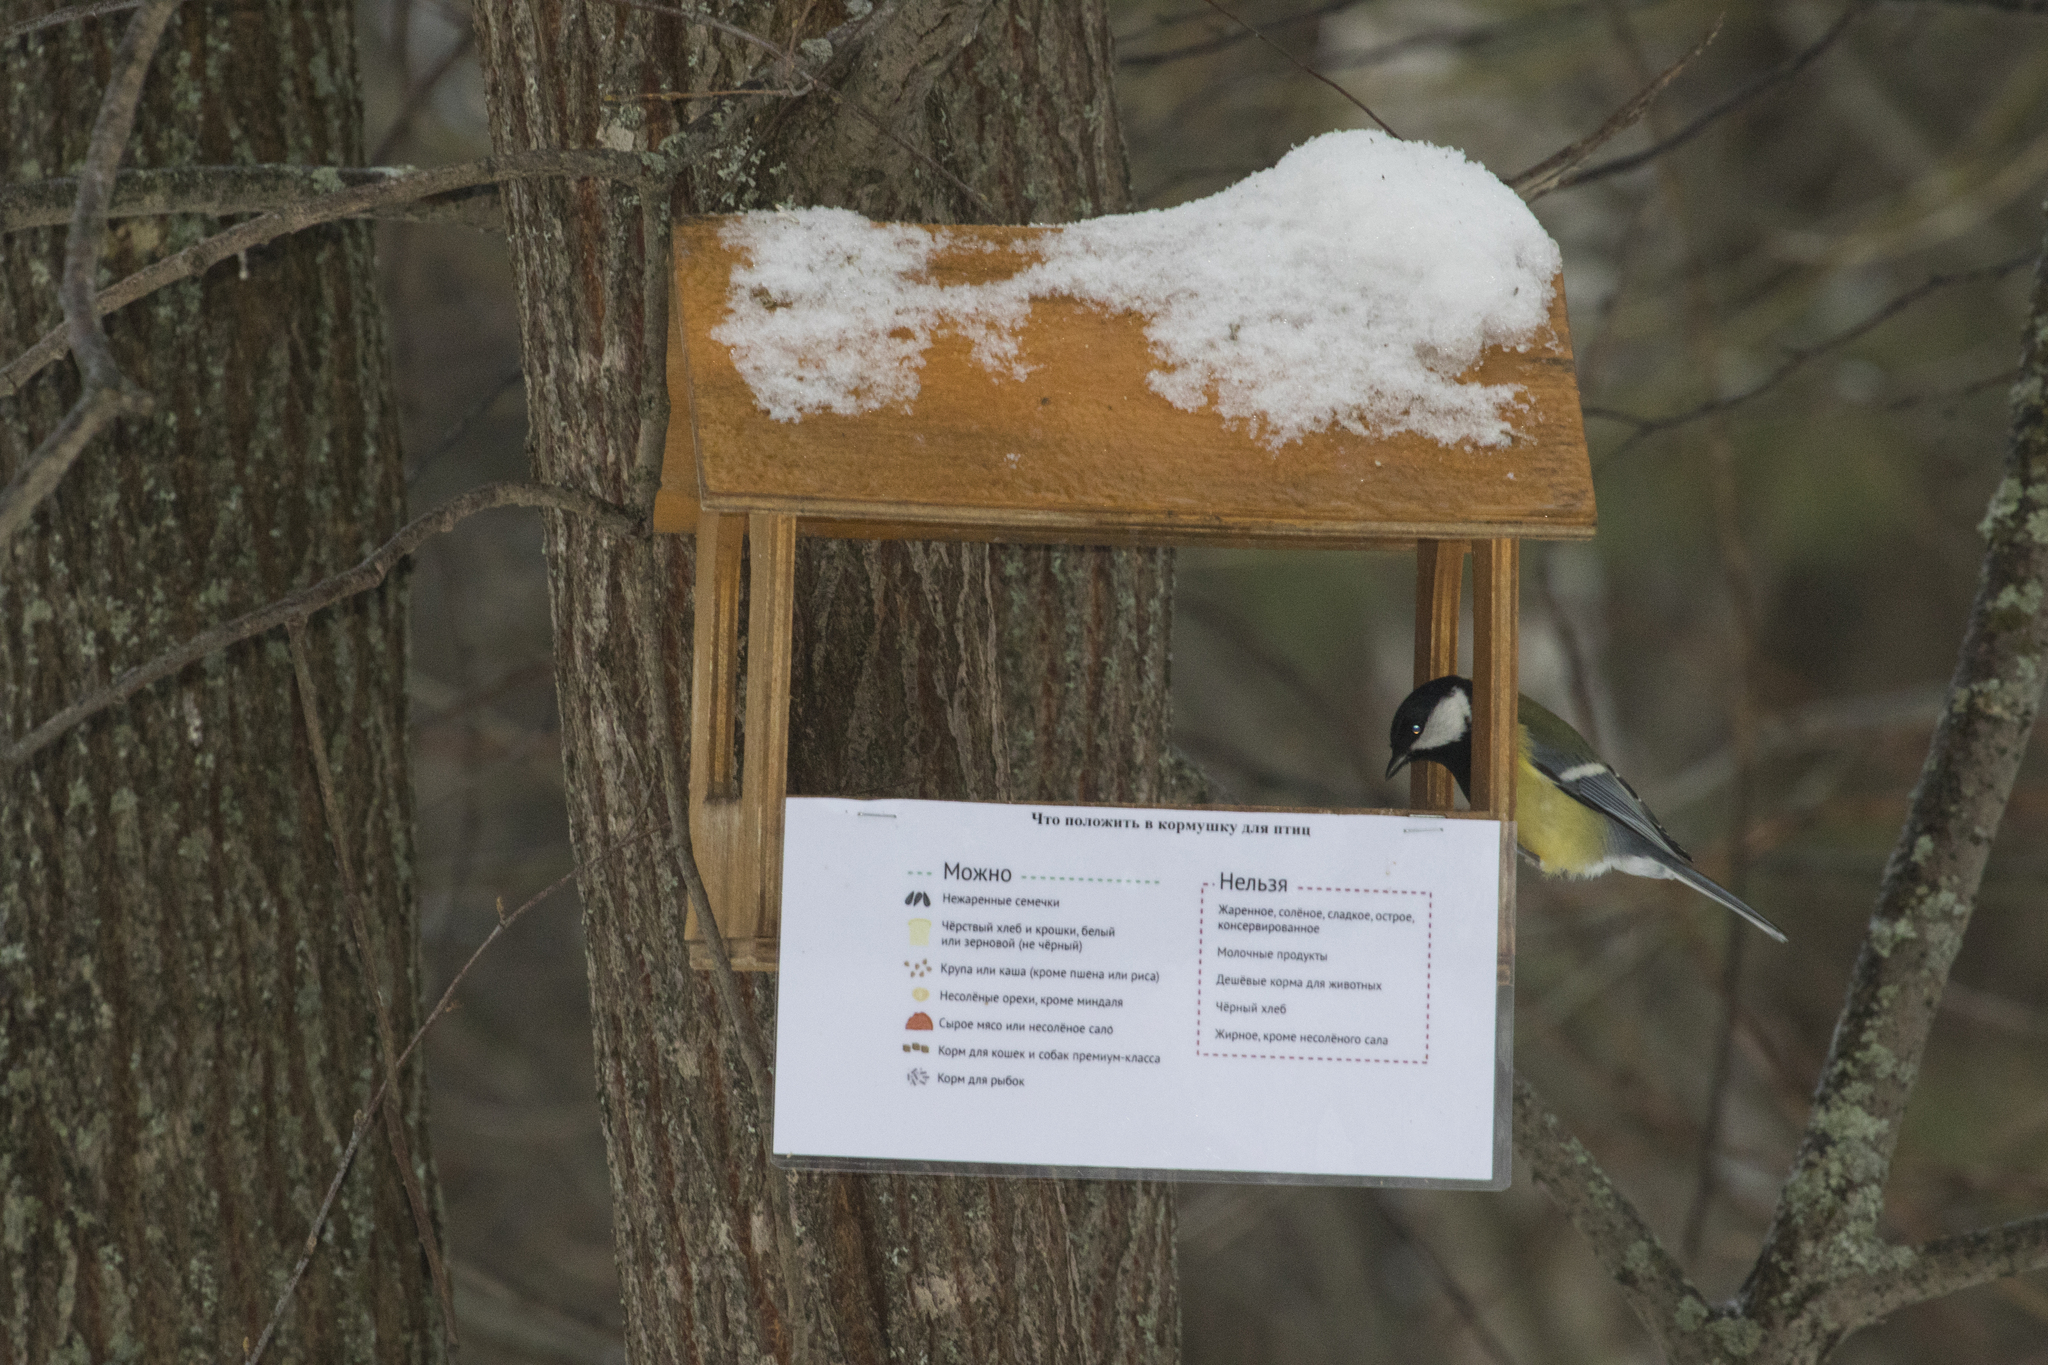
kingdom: Animalia
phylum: Chordata
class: Aves
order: Passeriformes
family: Paridae
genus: Parus
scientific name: Parus major
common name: Great tit
